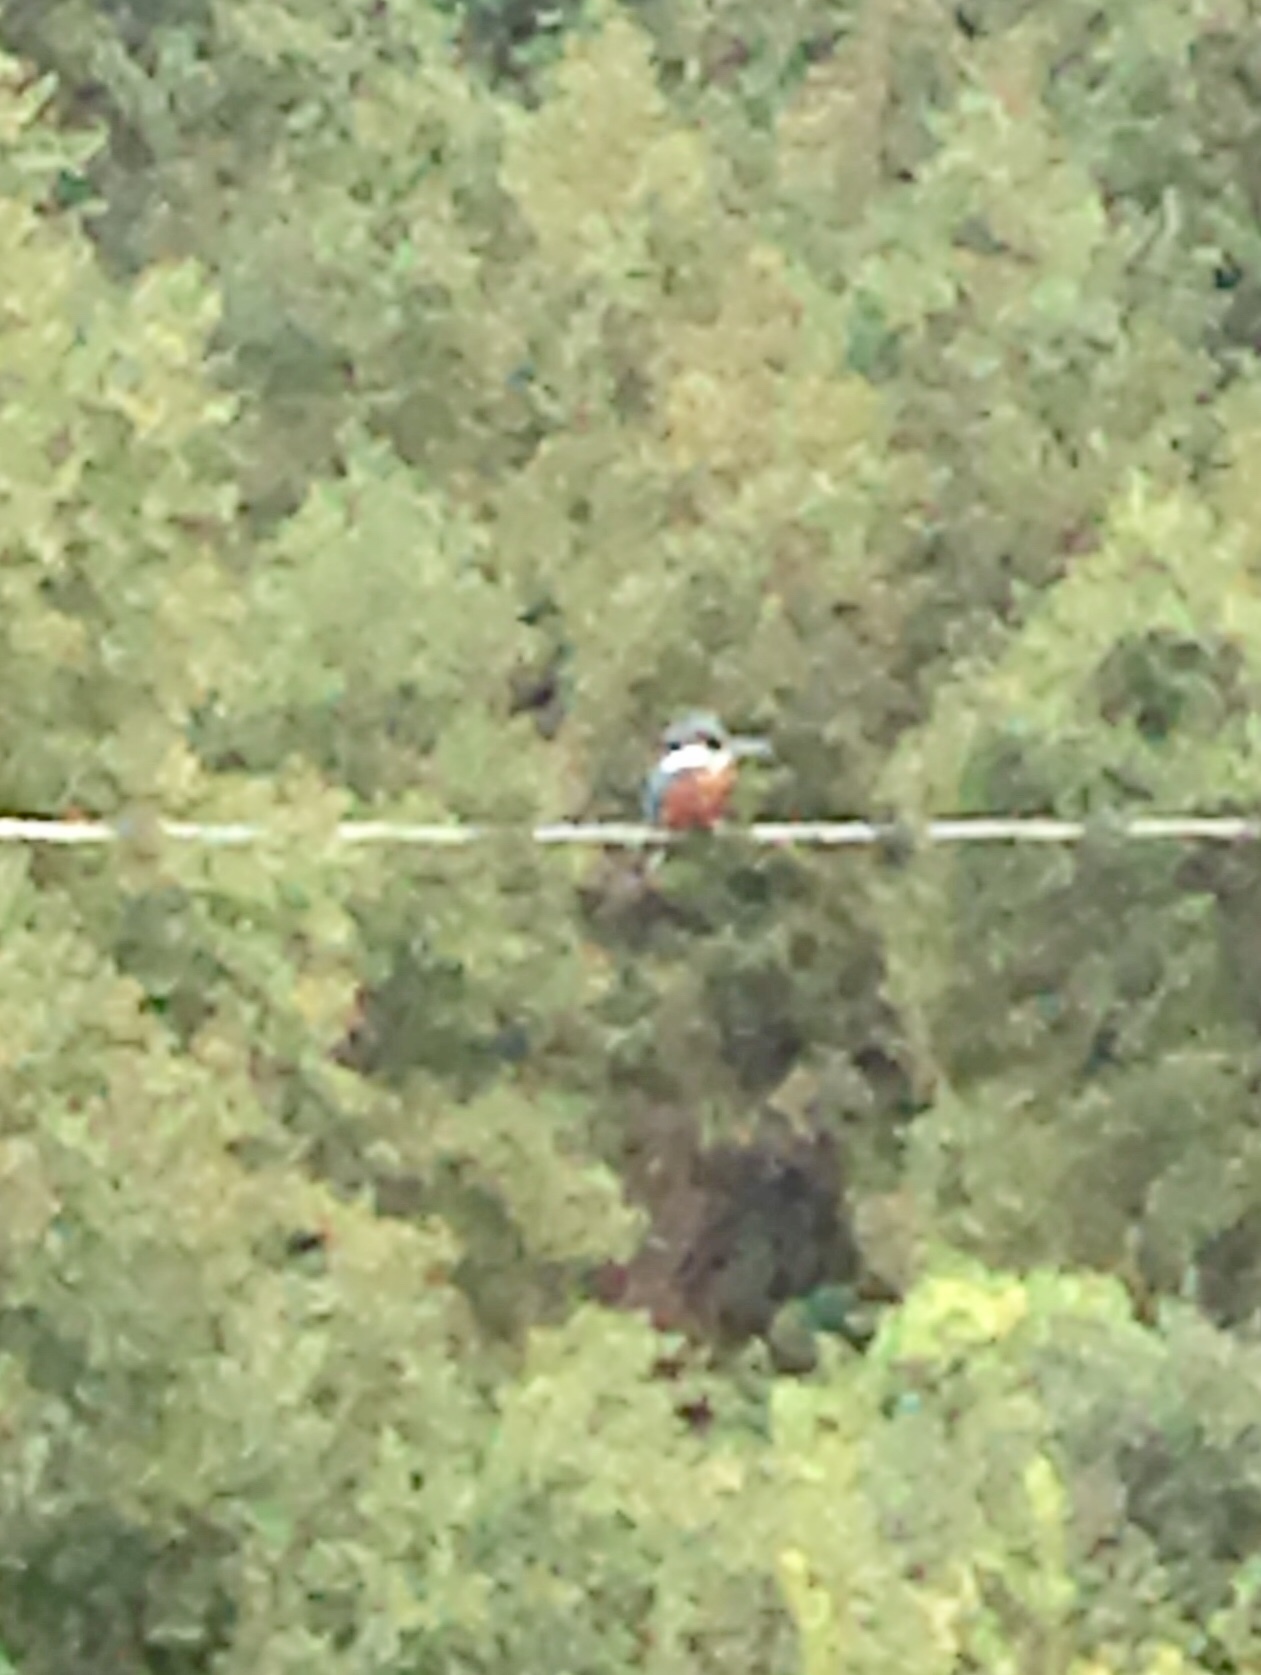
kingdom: Animalia
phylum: Chordata
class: Aves
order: Coraciiformes
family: Alcedinidae
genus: Megaceryle
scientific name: Megaceryle torquata
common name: Ringed kingfisher
